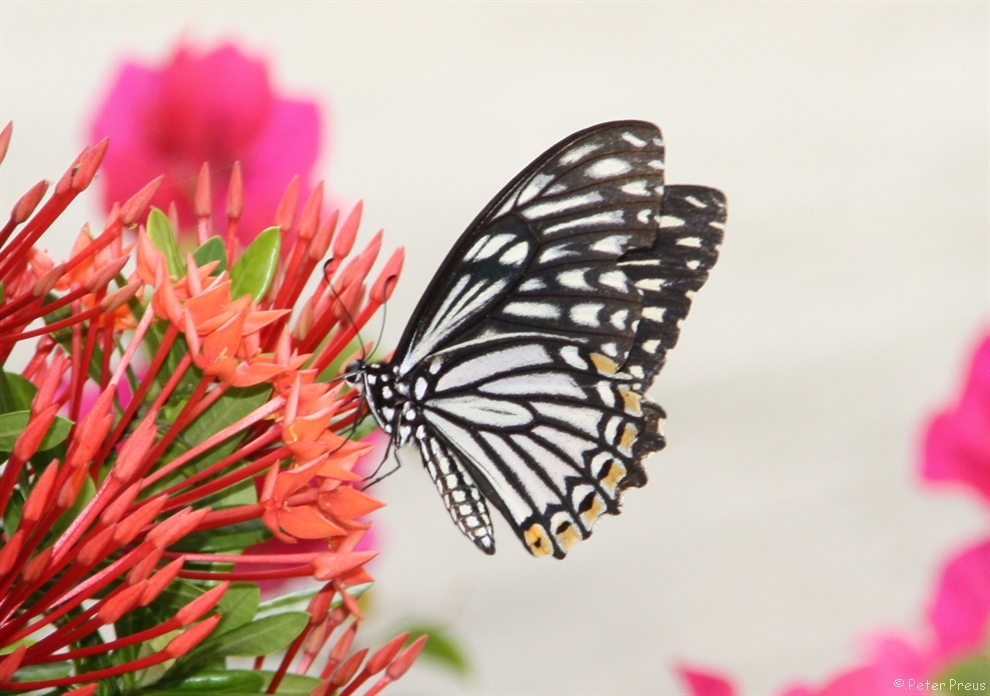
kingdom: Animalia
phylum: Arthropoda
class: Insecta
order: Lepidoptera
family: Papilionidae
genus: Chilasa
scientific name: Chilasa clytia
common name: Common mime
